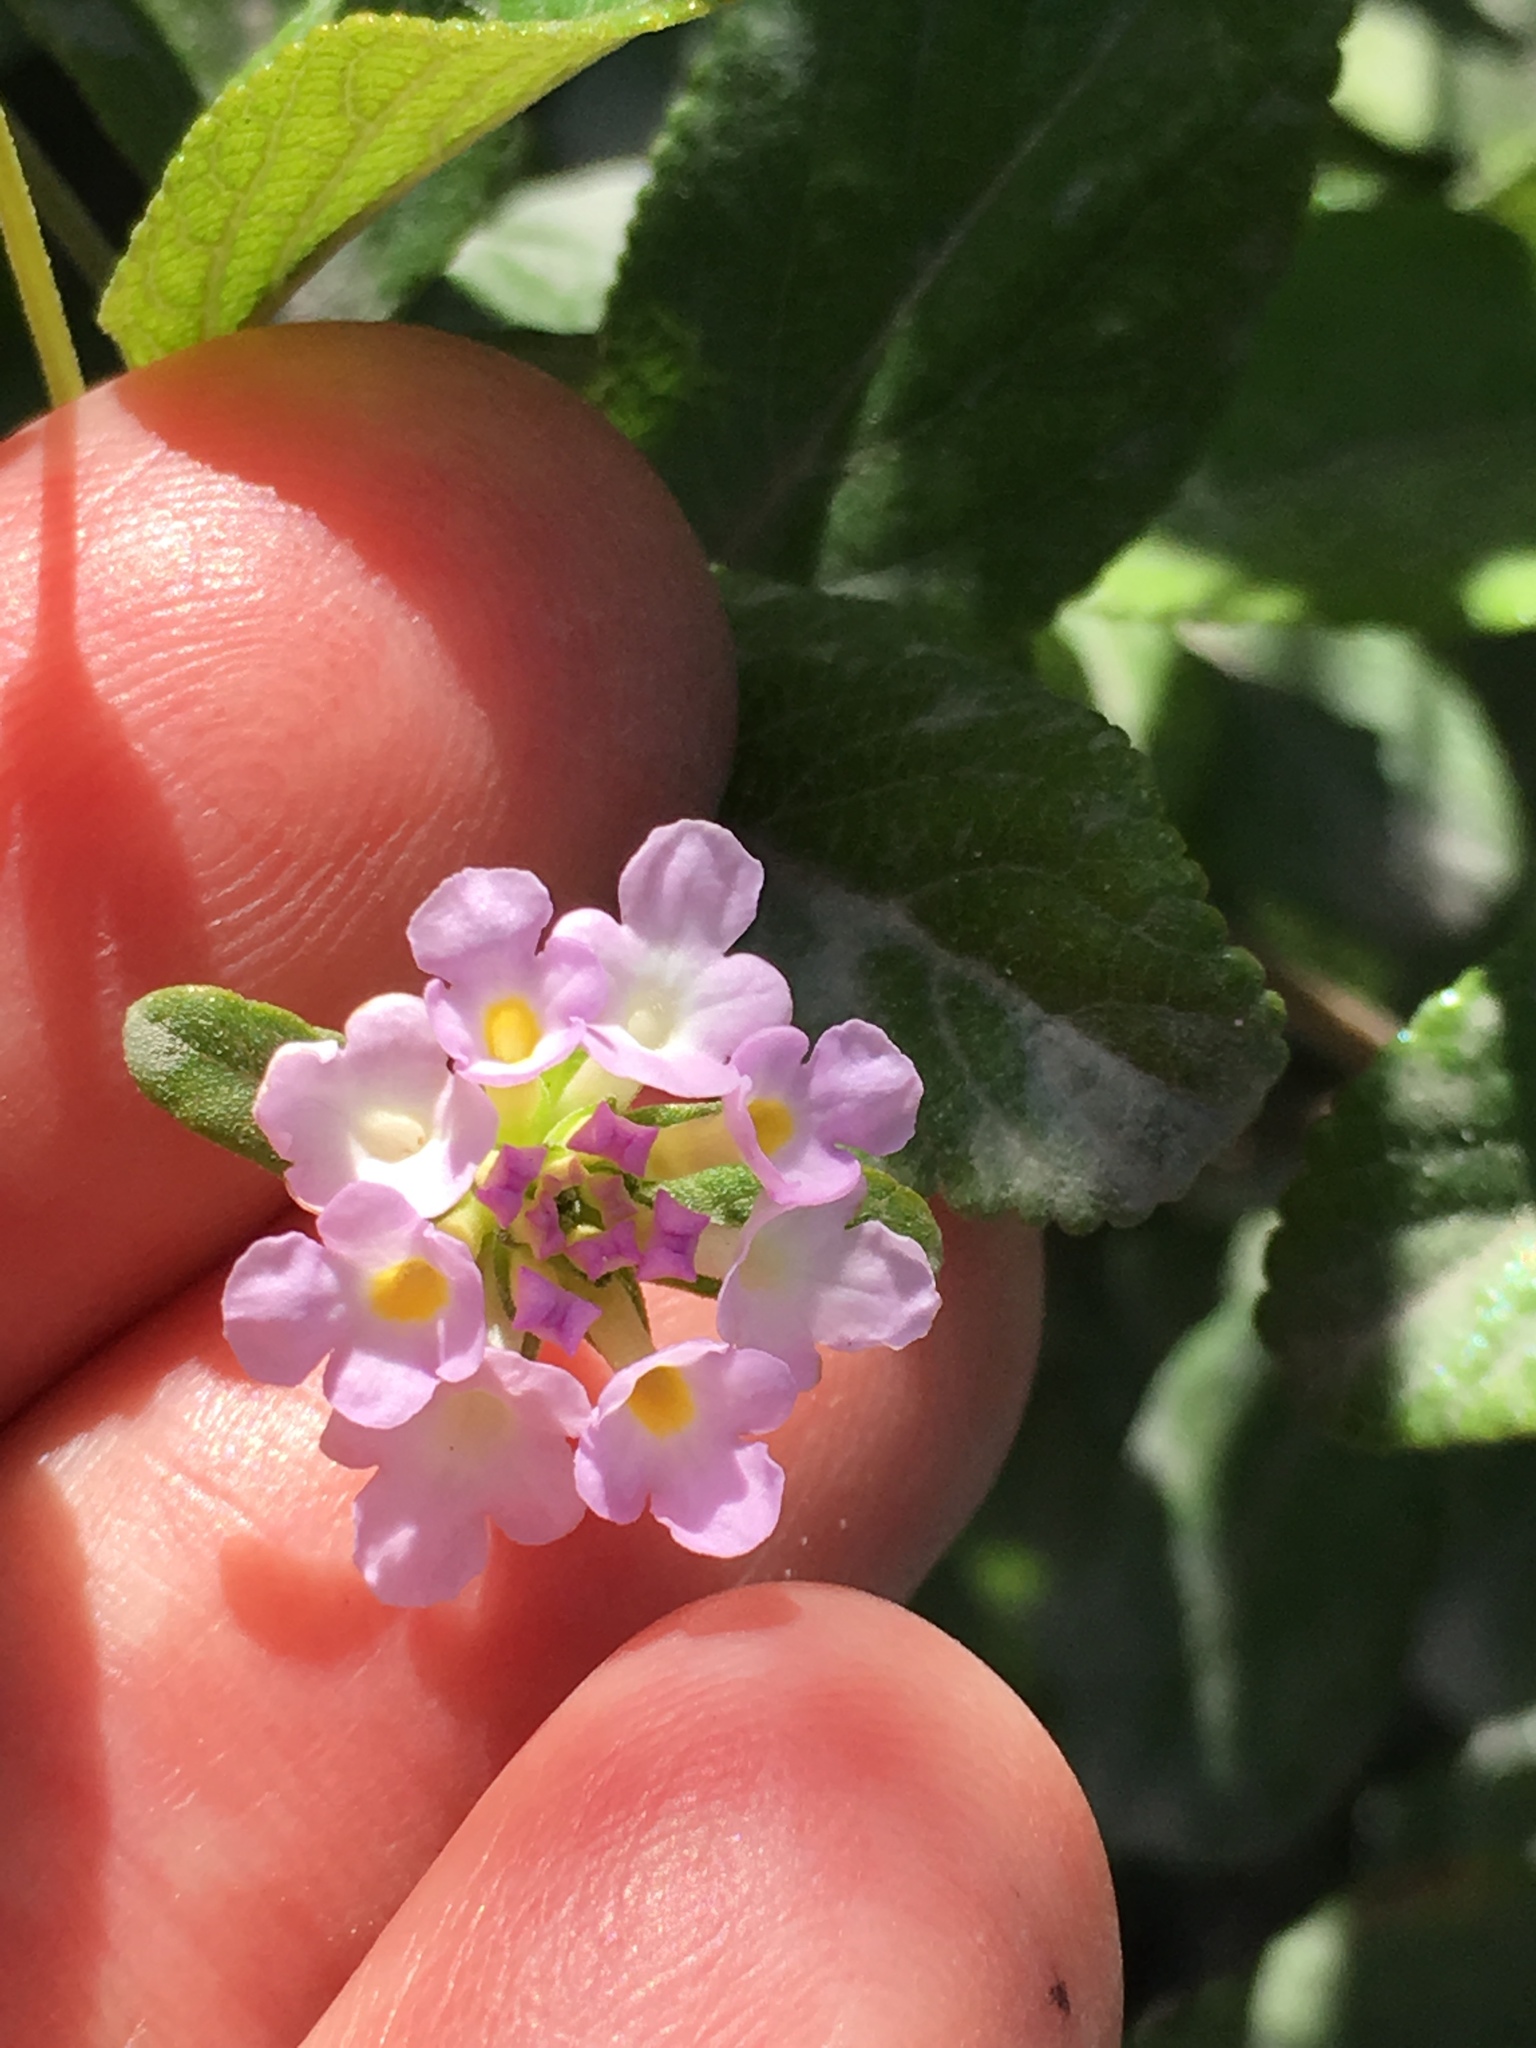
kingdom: Plantae
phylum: Tracheophyta
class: Magnoliopsida
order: Lamiales
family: Verbenaceae
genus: Lantana
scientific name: Lantana camara
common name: Lantana
